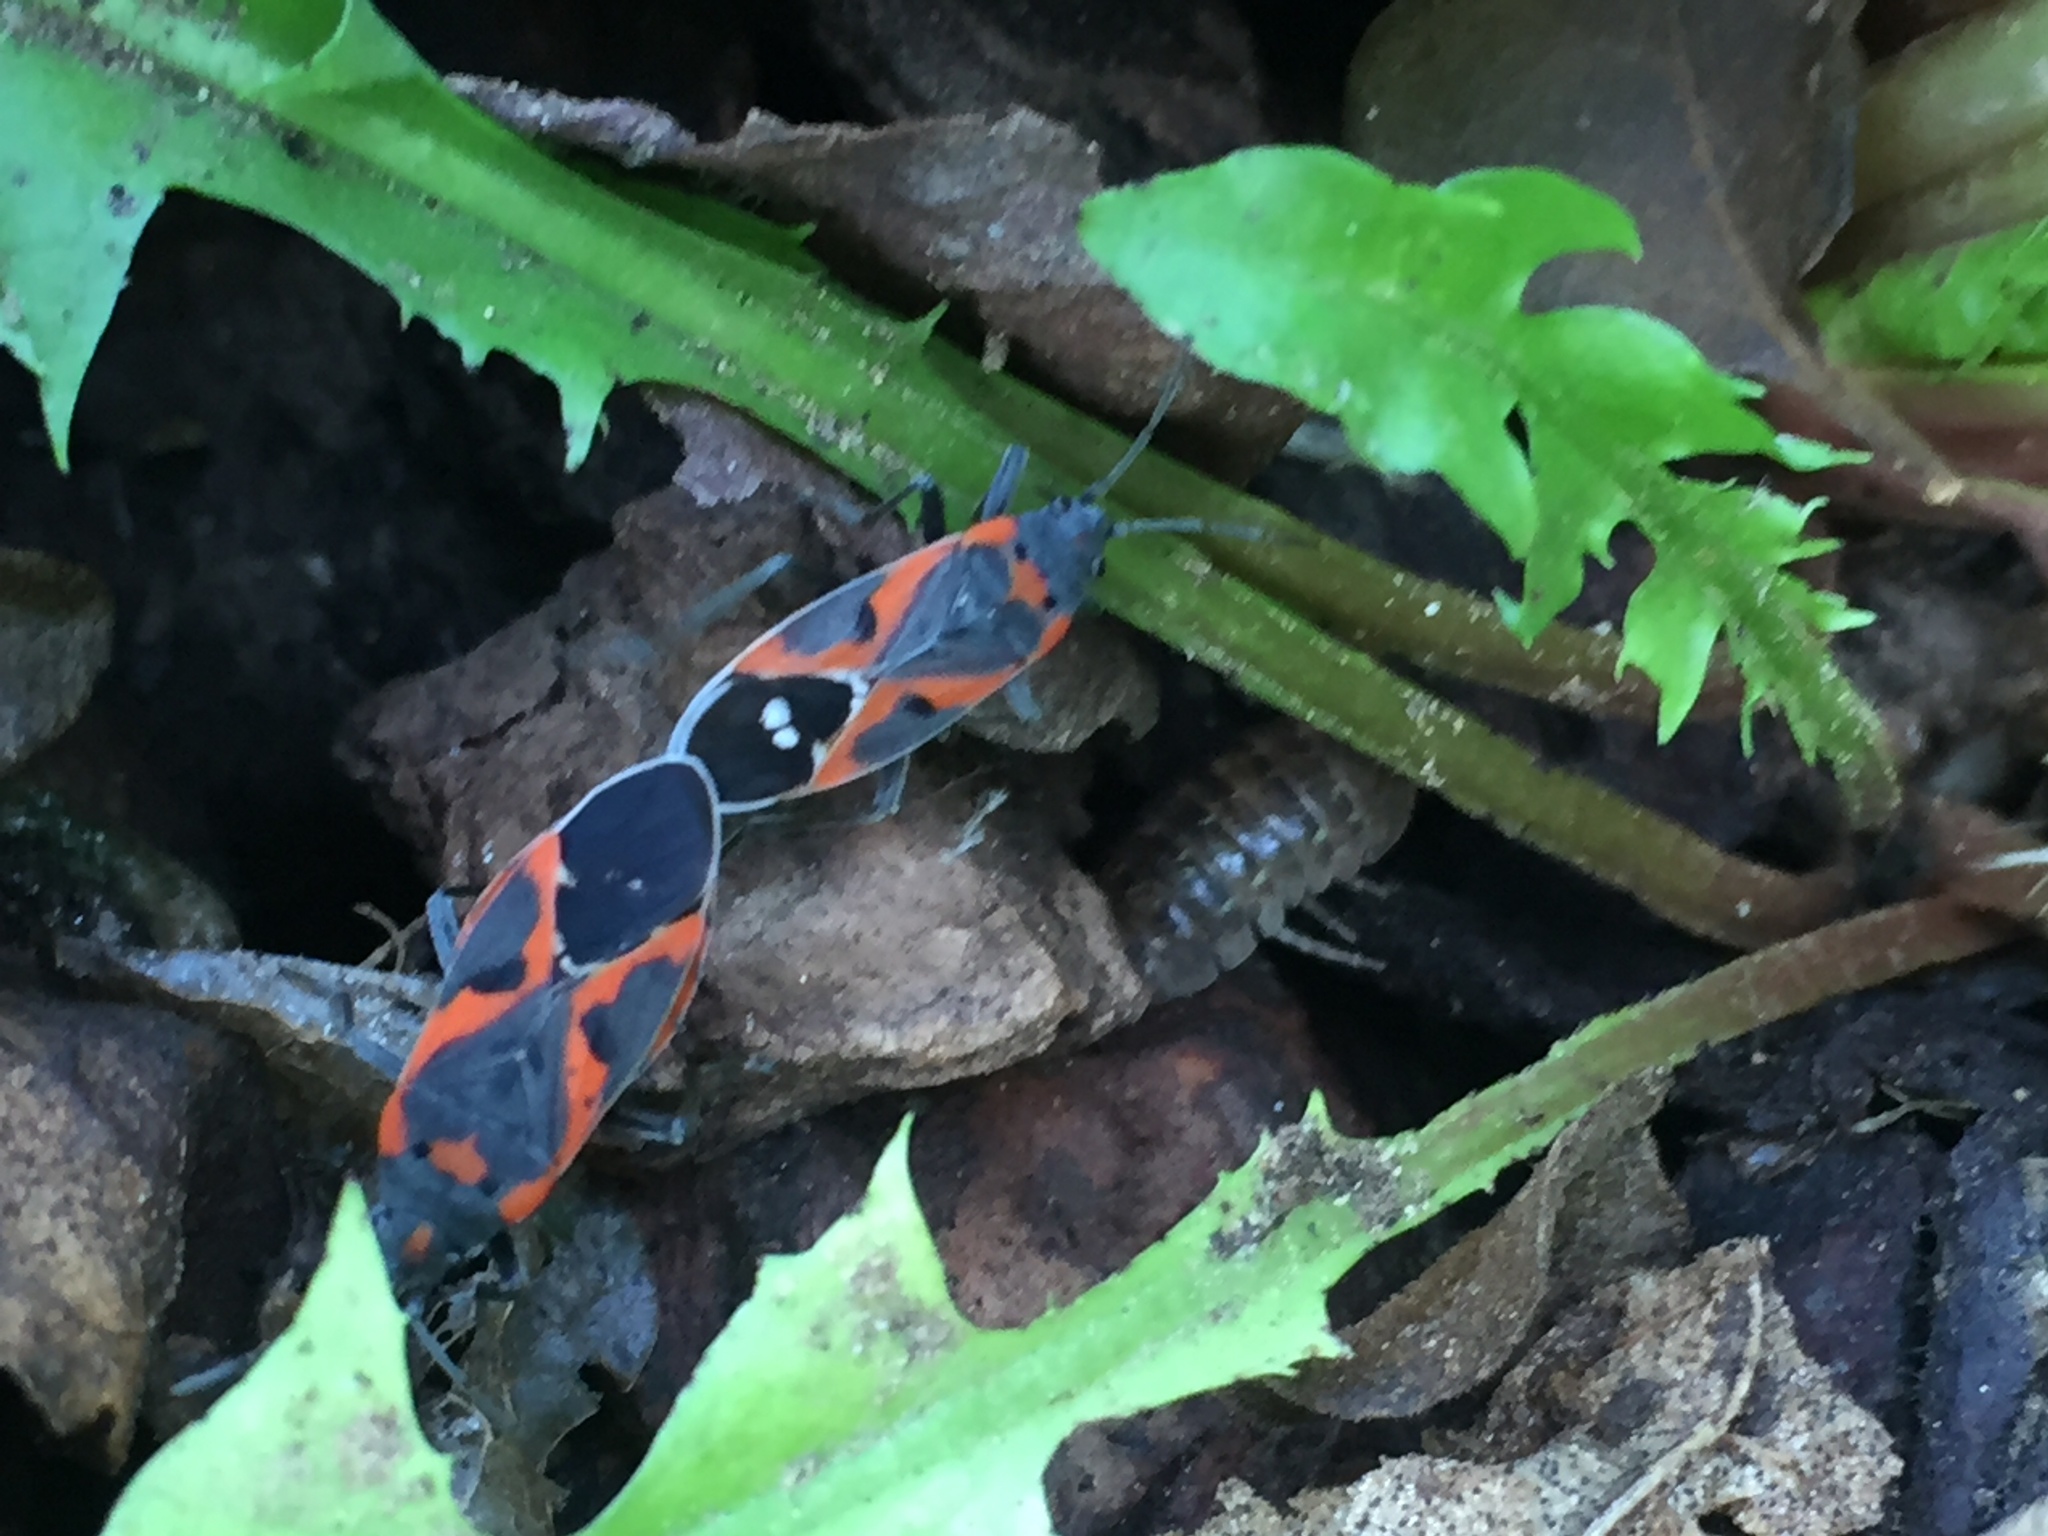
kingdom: Animalia
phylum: Arthropoda
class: Insecta
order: Hemiptera
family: Lygaeidae
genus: Lygaeus
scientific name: Lygaeus kalmii
